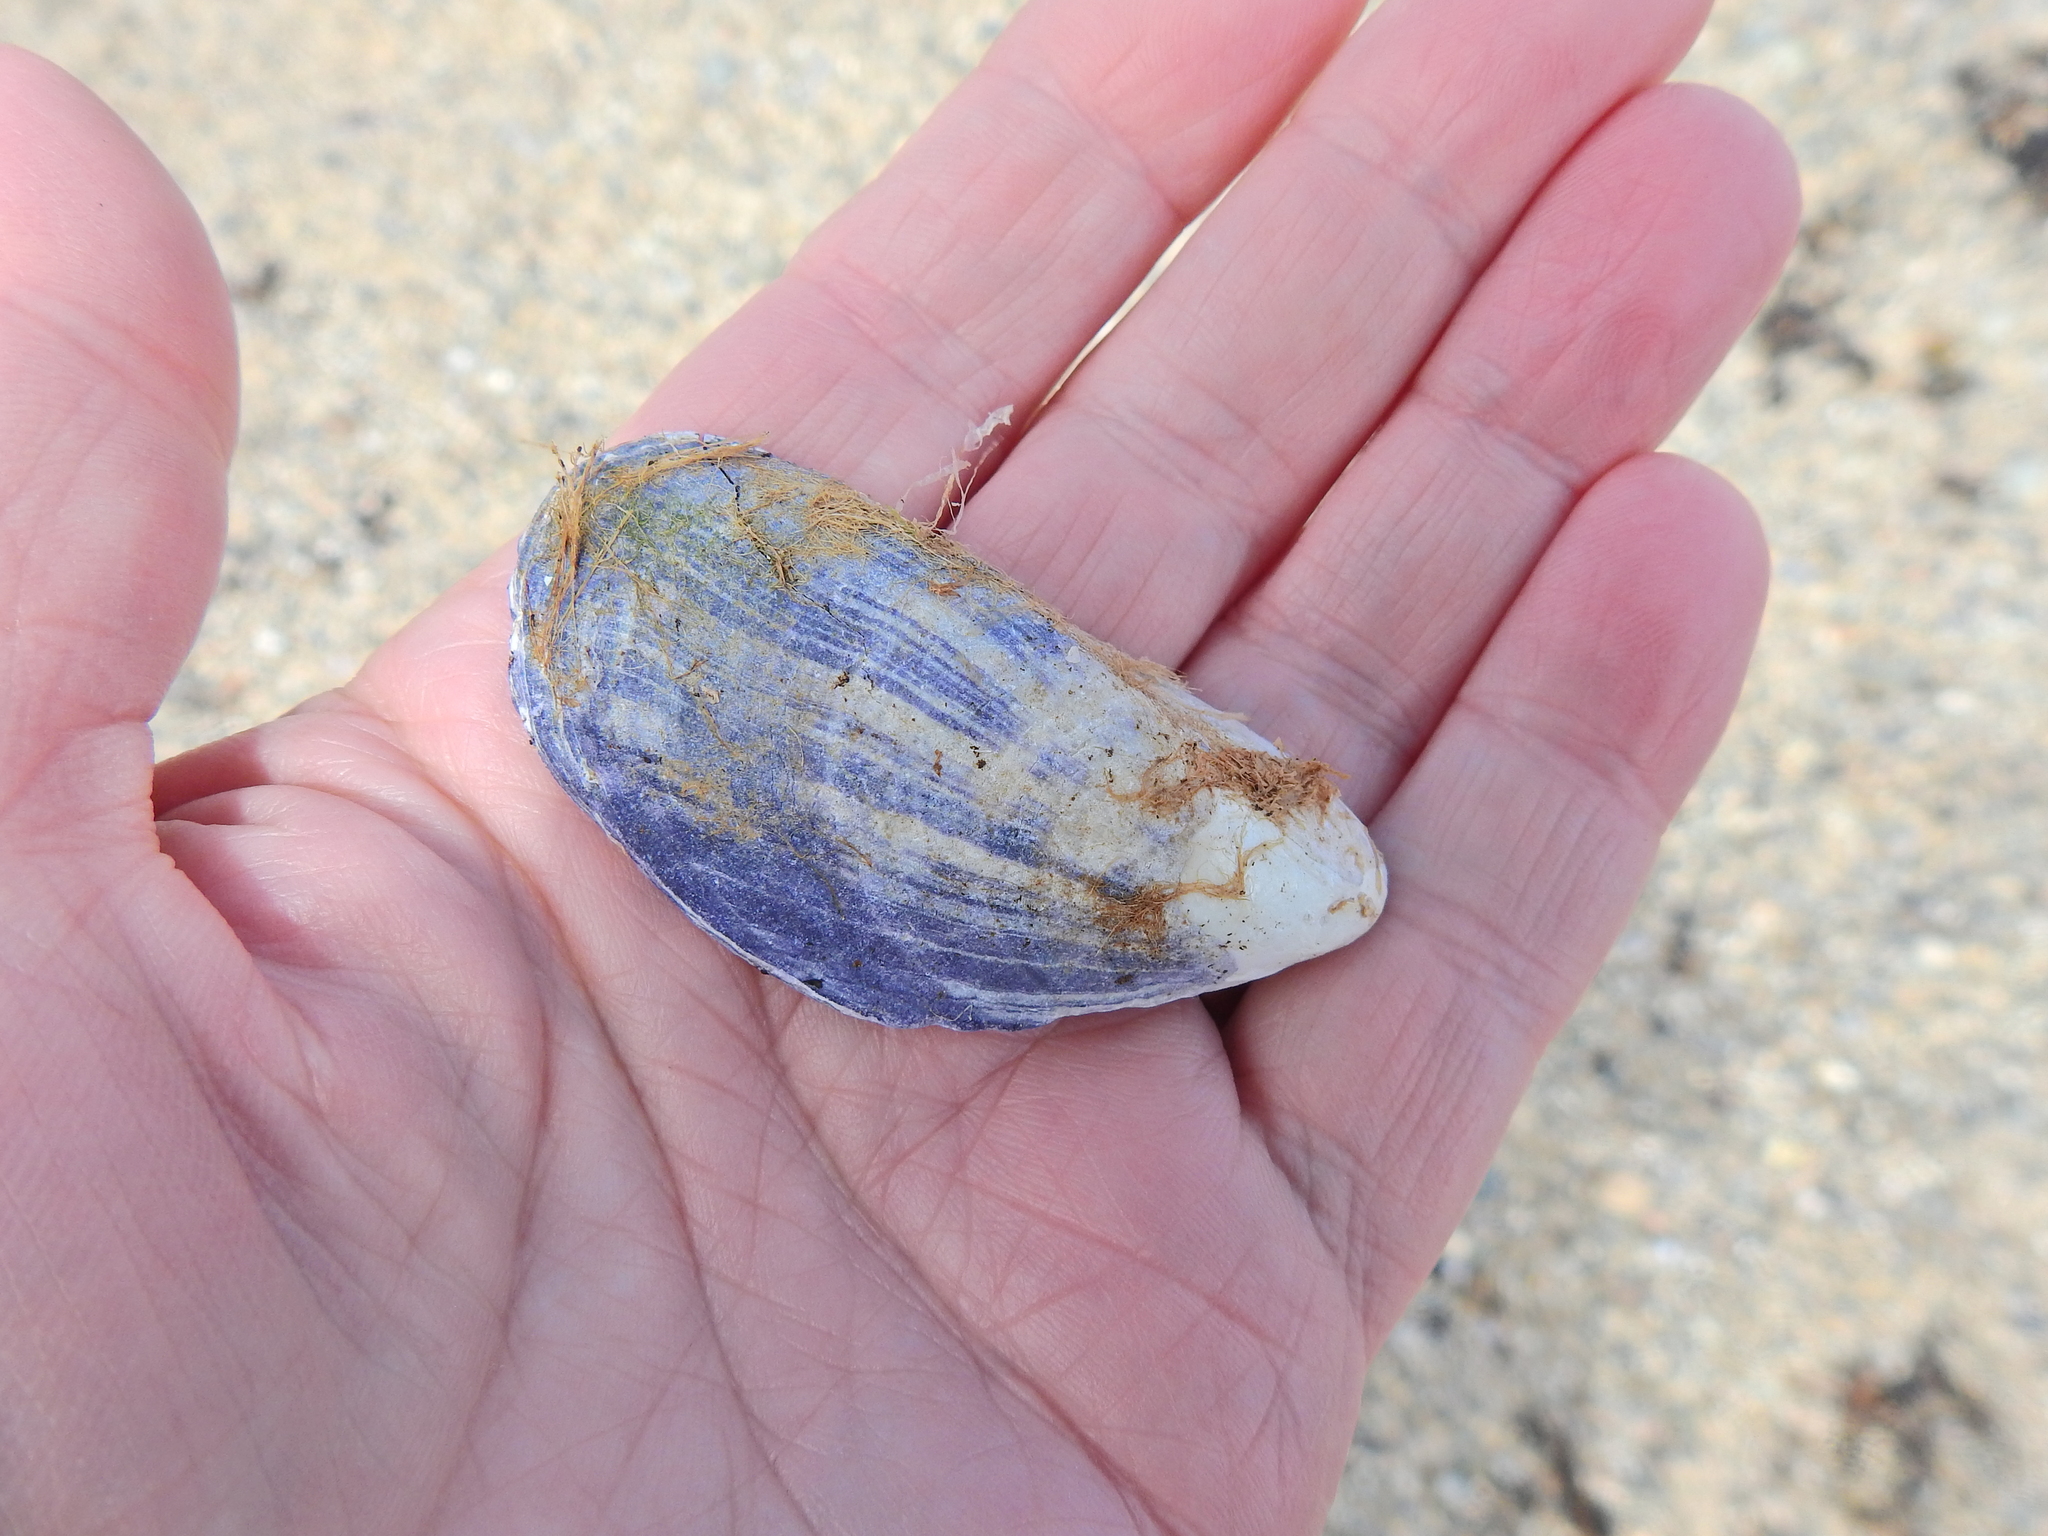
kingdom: Animalia
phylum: Mollusca
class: Bivalvia
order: Mytilida
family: Mytilidae
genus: Mytilus
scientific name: Mytilus edulis
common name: Blue mussel
